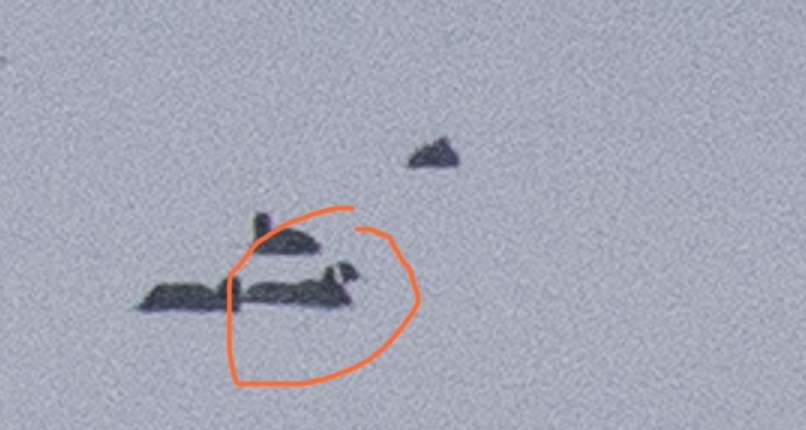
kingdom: Animalia
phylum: Chordata
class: Aves
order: Gruiformes
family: Rallidae
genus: Fulica
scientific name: Fulica atra
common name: Eurasian coot
